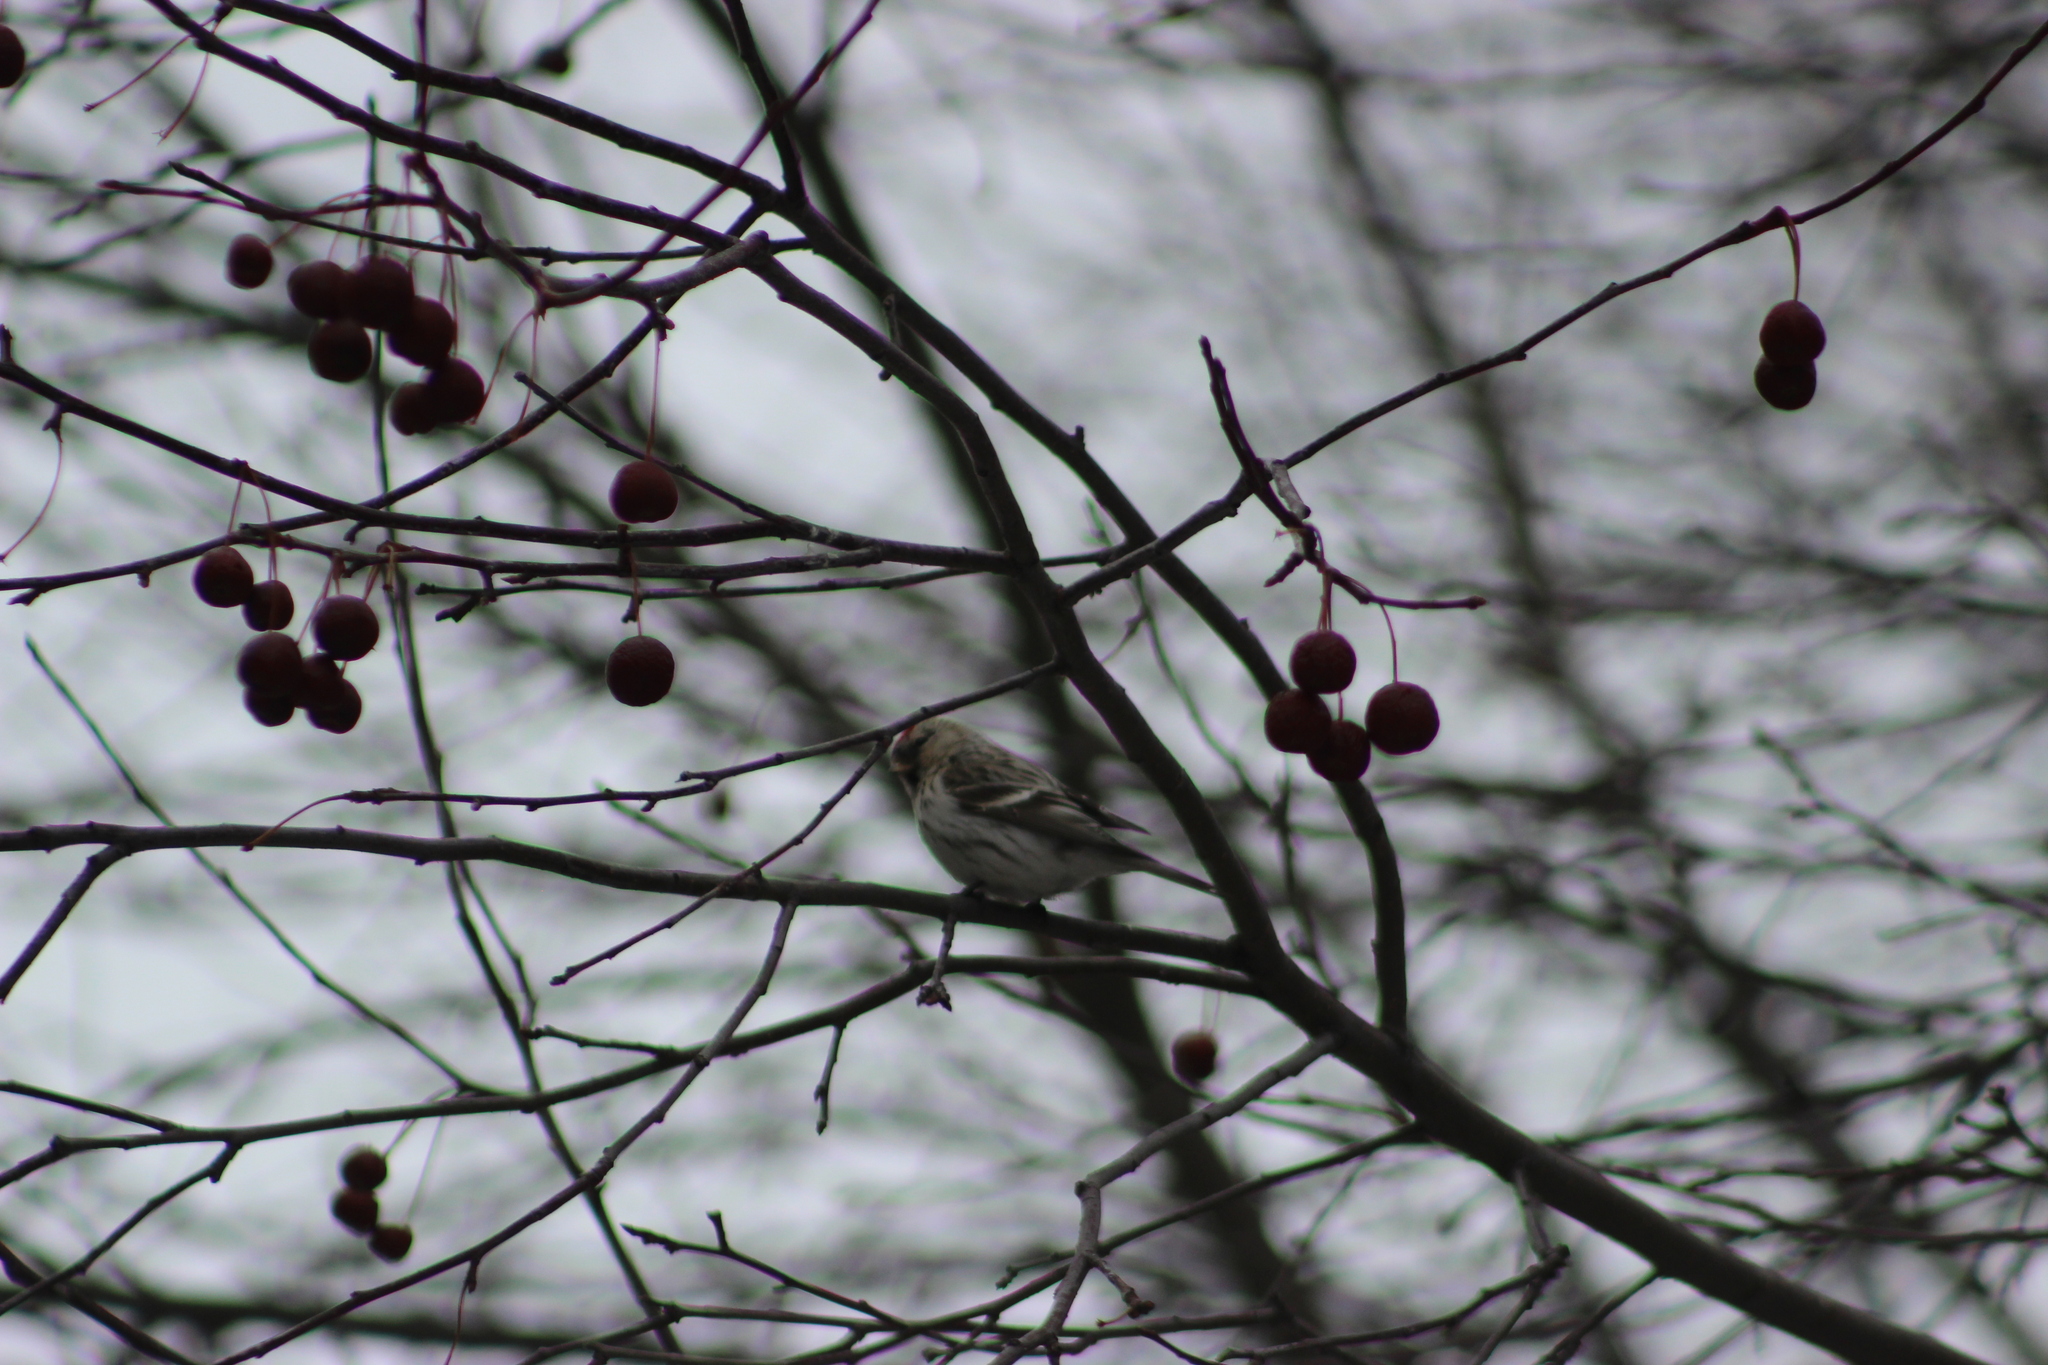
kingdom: Animalia
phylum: Chordata
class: Aves
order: Passeriformes
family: Fringillidae
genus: Acanthis
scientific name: Acanthis hornemanni
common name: Arctic redpoll
